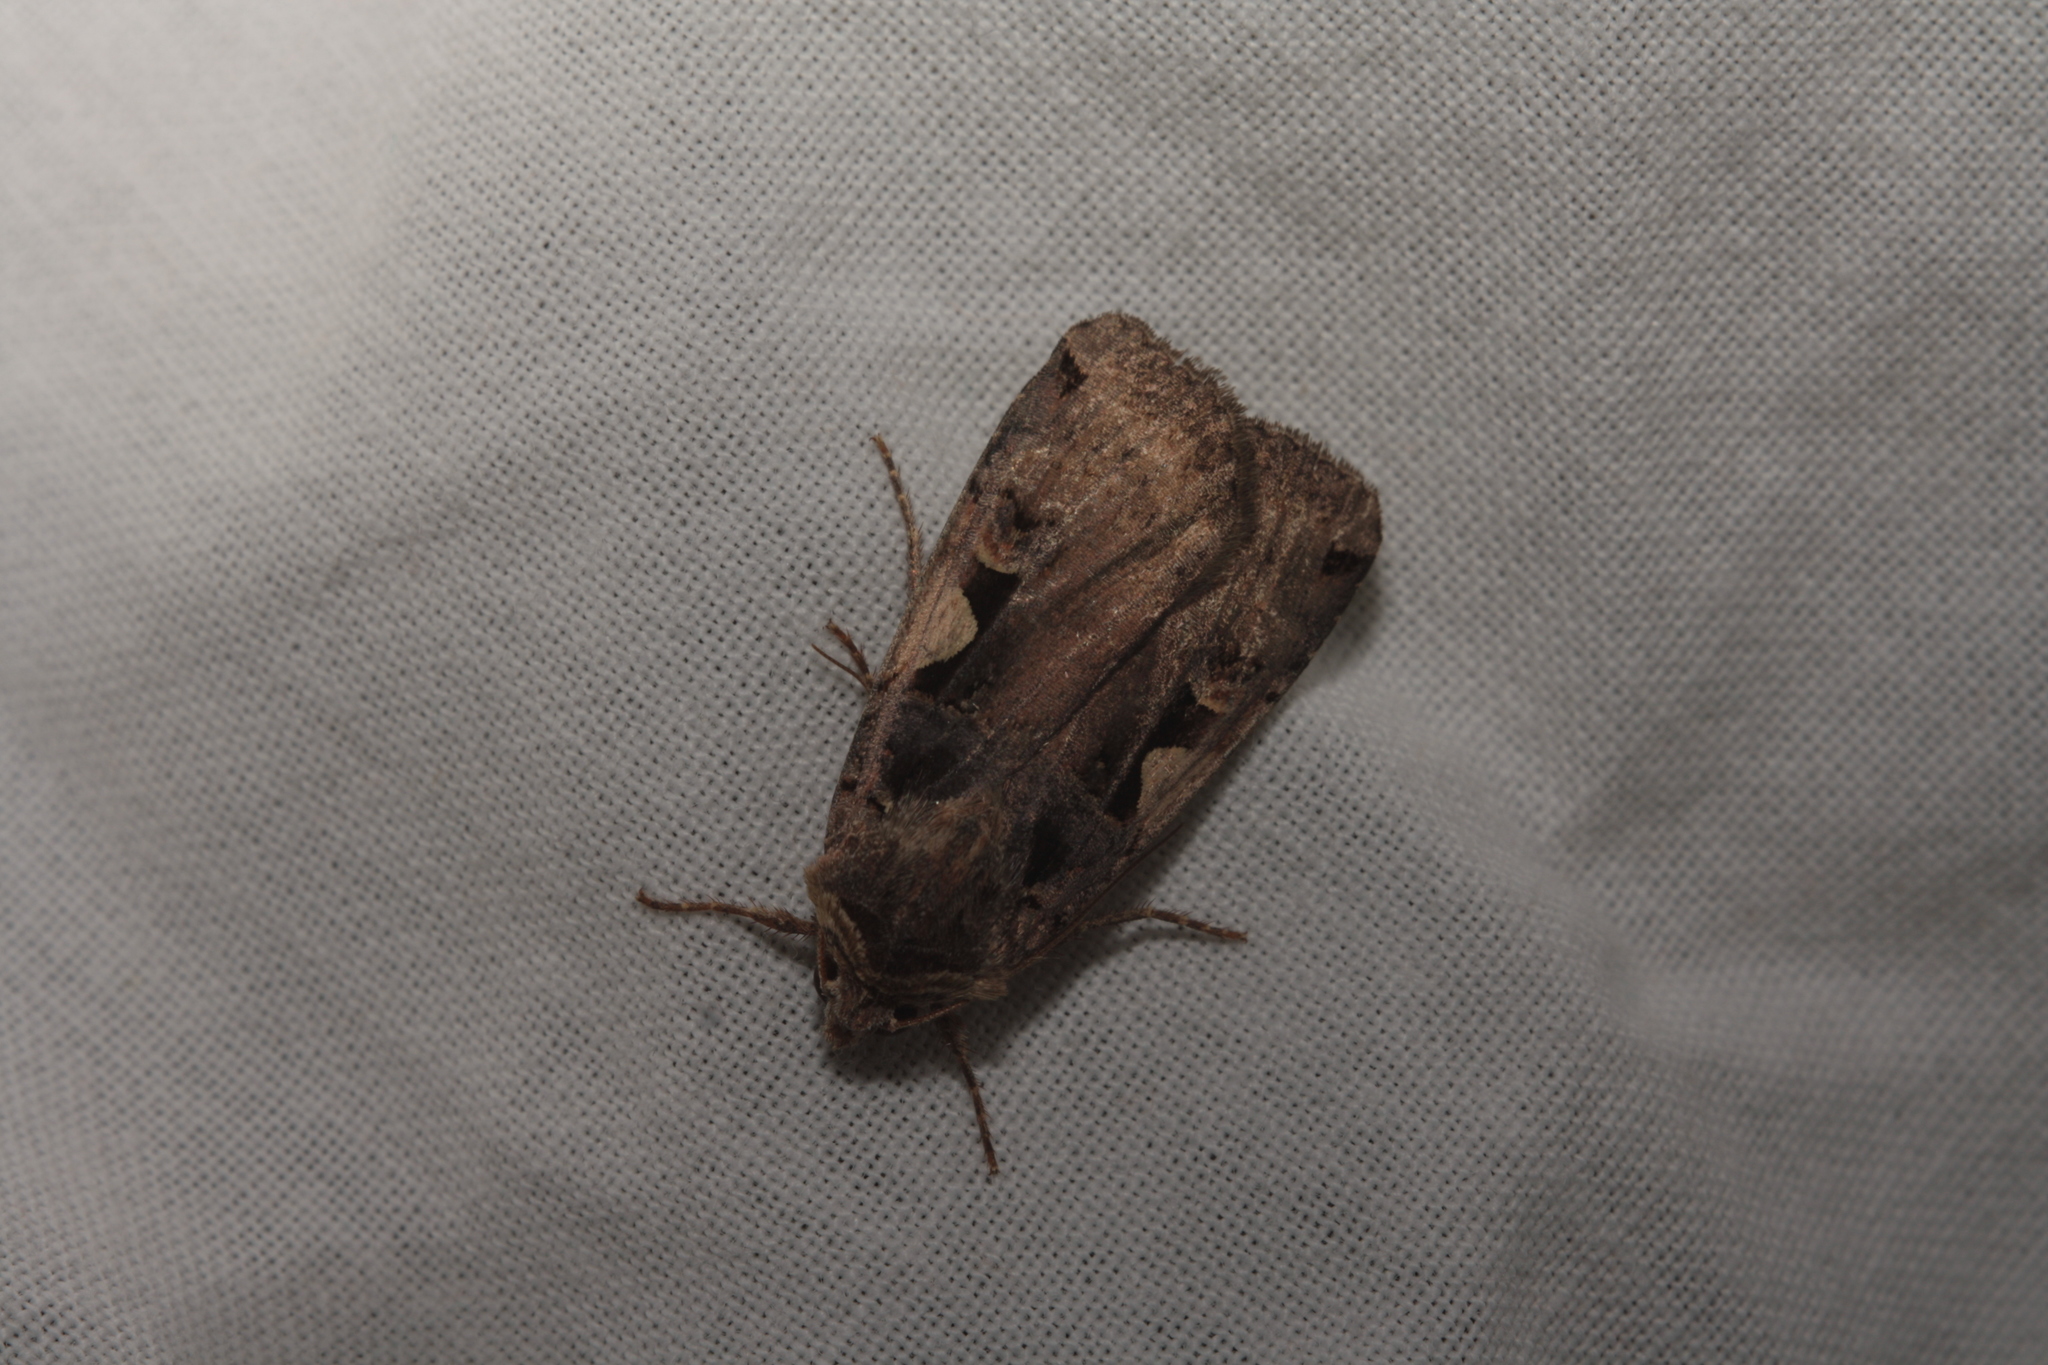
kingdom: Animalia
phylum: Arthropoda
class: Insecta
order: Lepidoptera
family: Noctuidae
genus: Xestia
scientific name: Xestia c-nigrum
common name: Setaceous hebrew character
